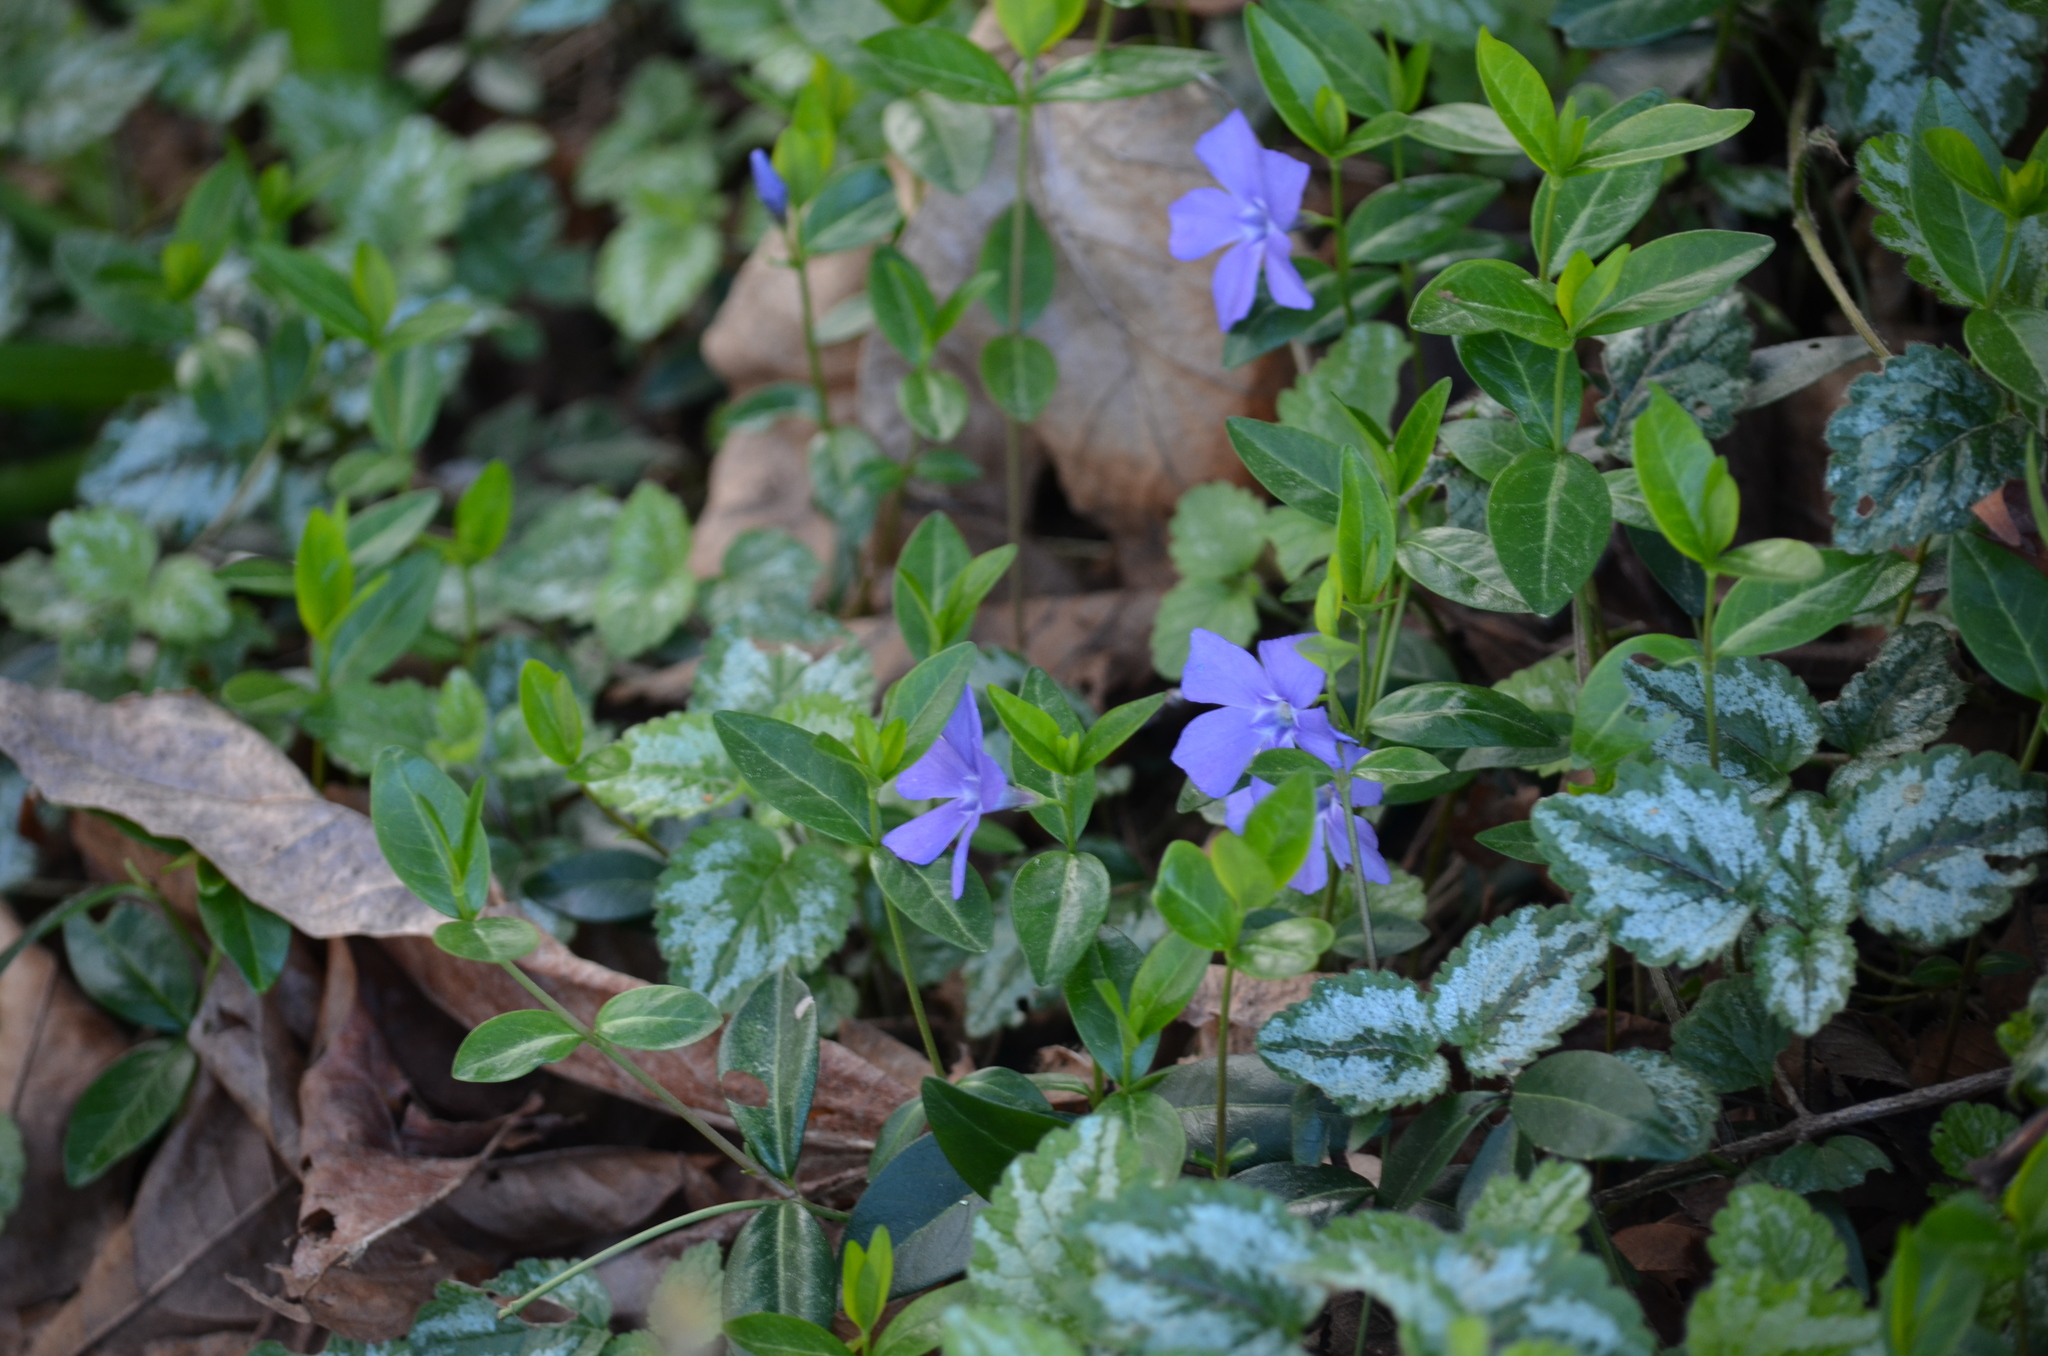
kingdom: Plantae
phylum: Tracheophyta
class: Magnoliopsida
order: Gentianales
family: Apocynaceae
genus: Vinca
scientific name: Vinca minor
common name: Lesser periwinkle
